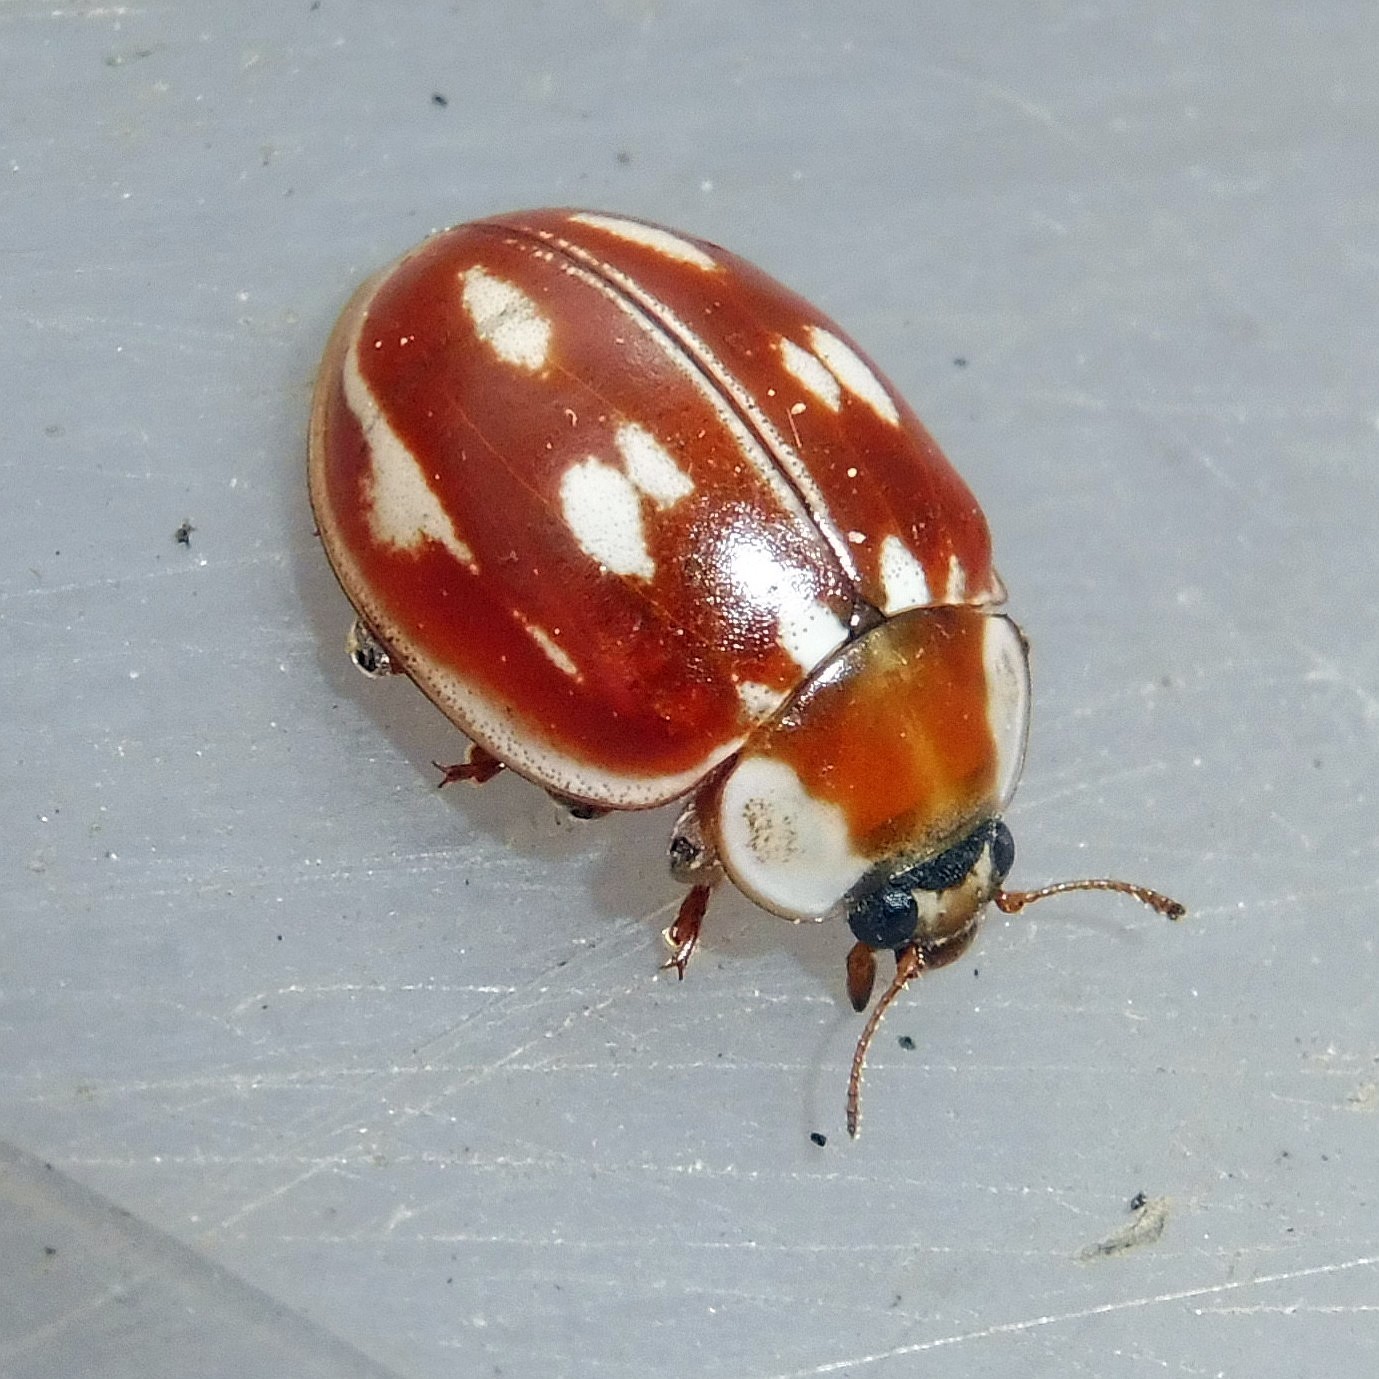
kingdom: Animalia
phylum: Arthropoda
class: Insecta
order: Coleoptera
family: Coccinellidae
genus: Myzia
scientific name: Myzia oblongoguttata
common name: Striped ladybird
